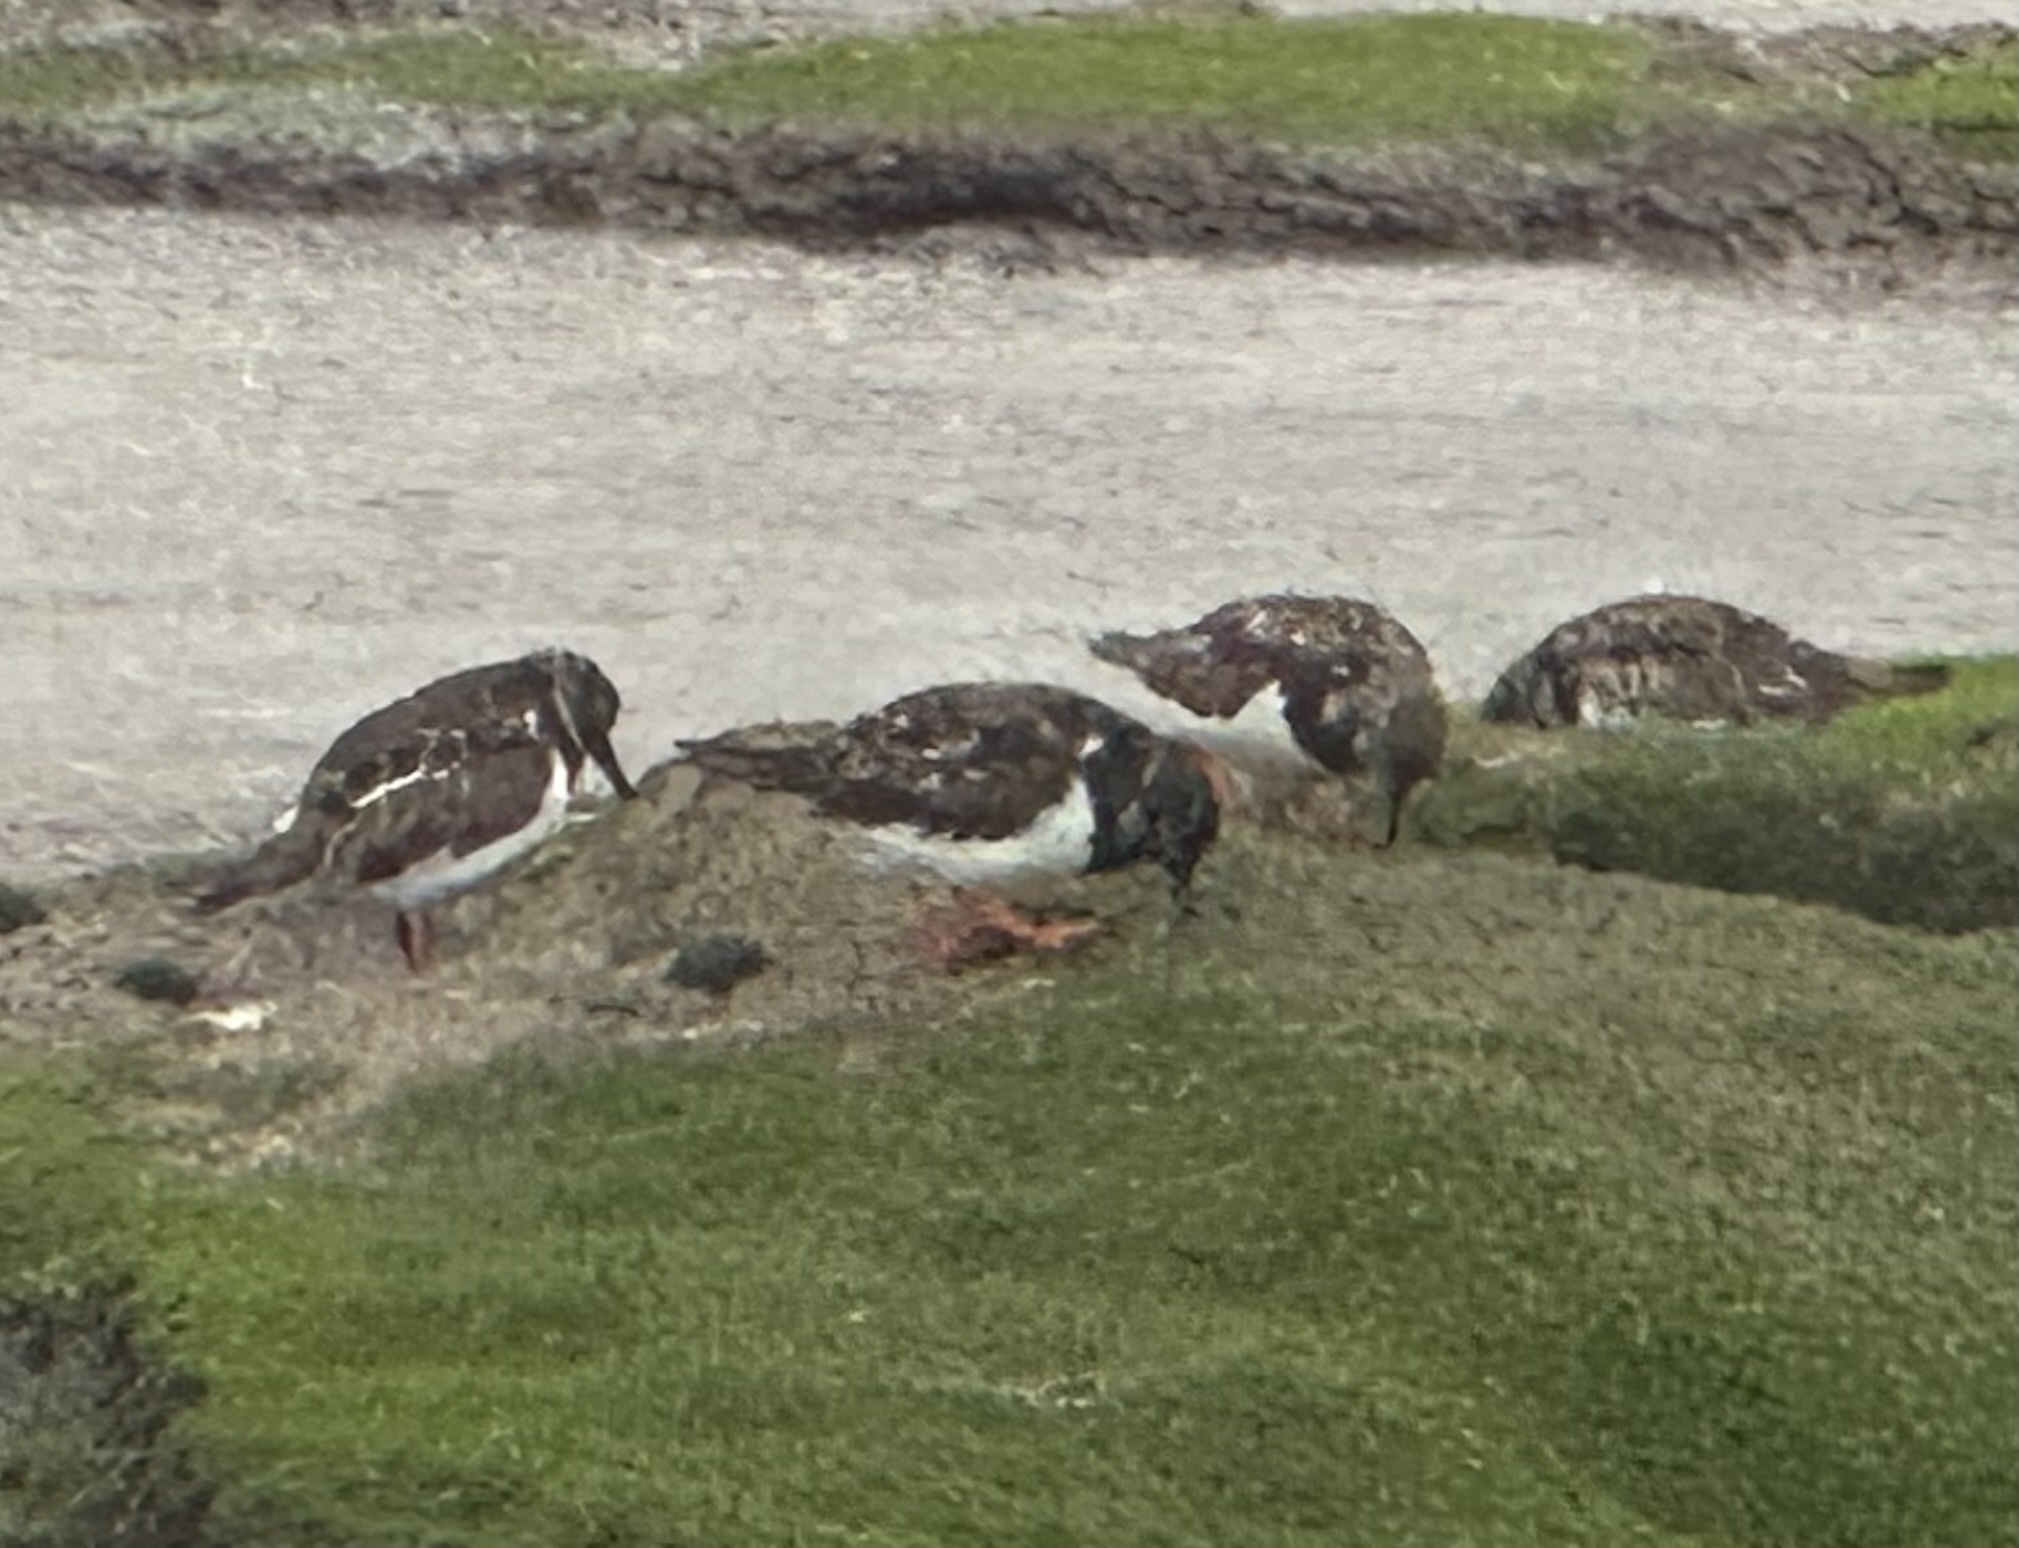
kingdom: Animalia
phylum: Chordata
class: Aves
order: Charadriiformes
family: Scolopacidae
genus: Arenaria
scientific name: Arenaria interpres
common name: Ruddy turnstone
